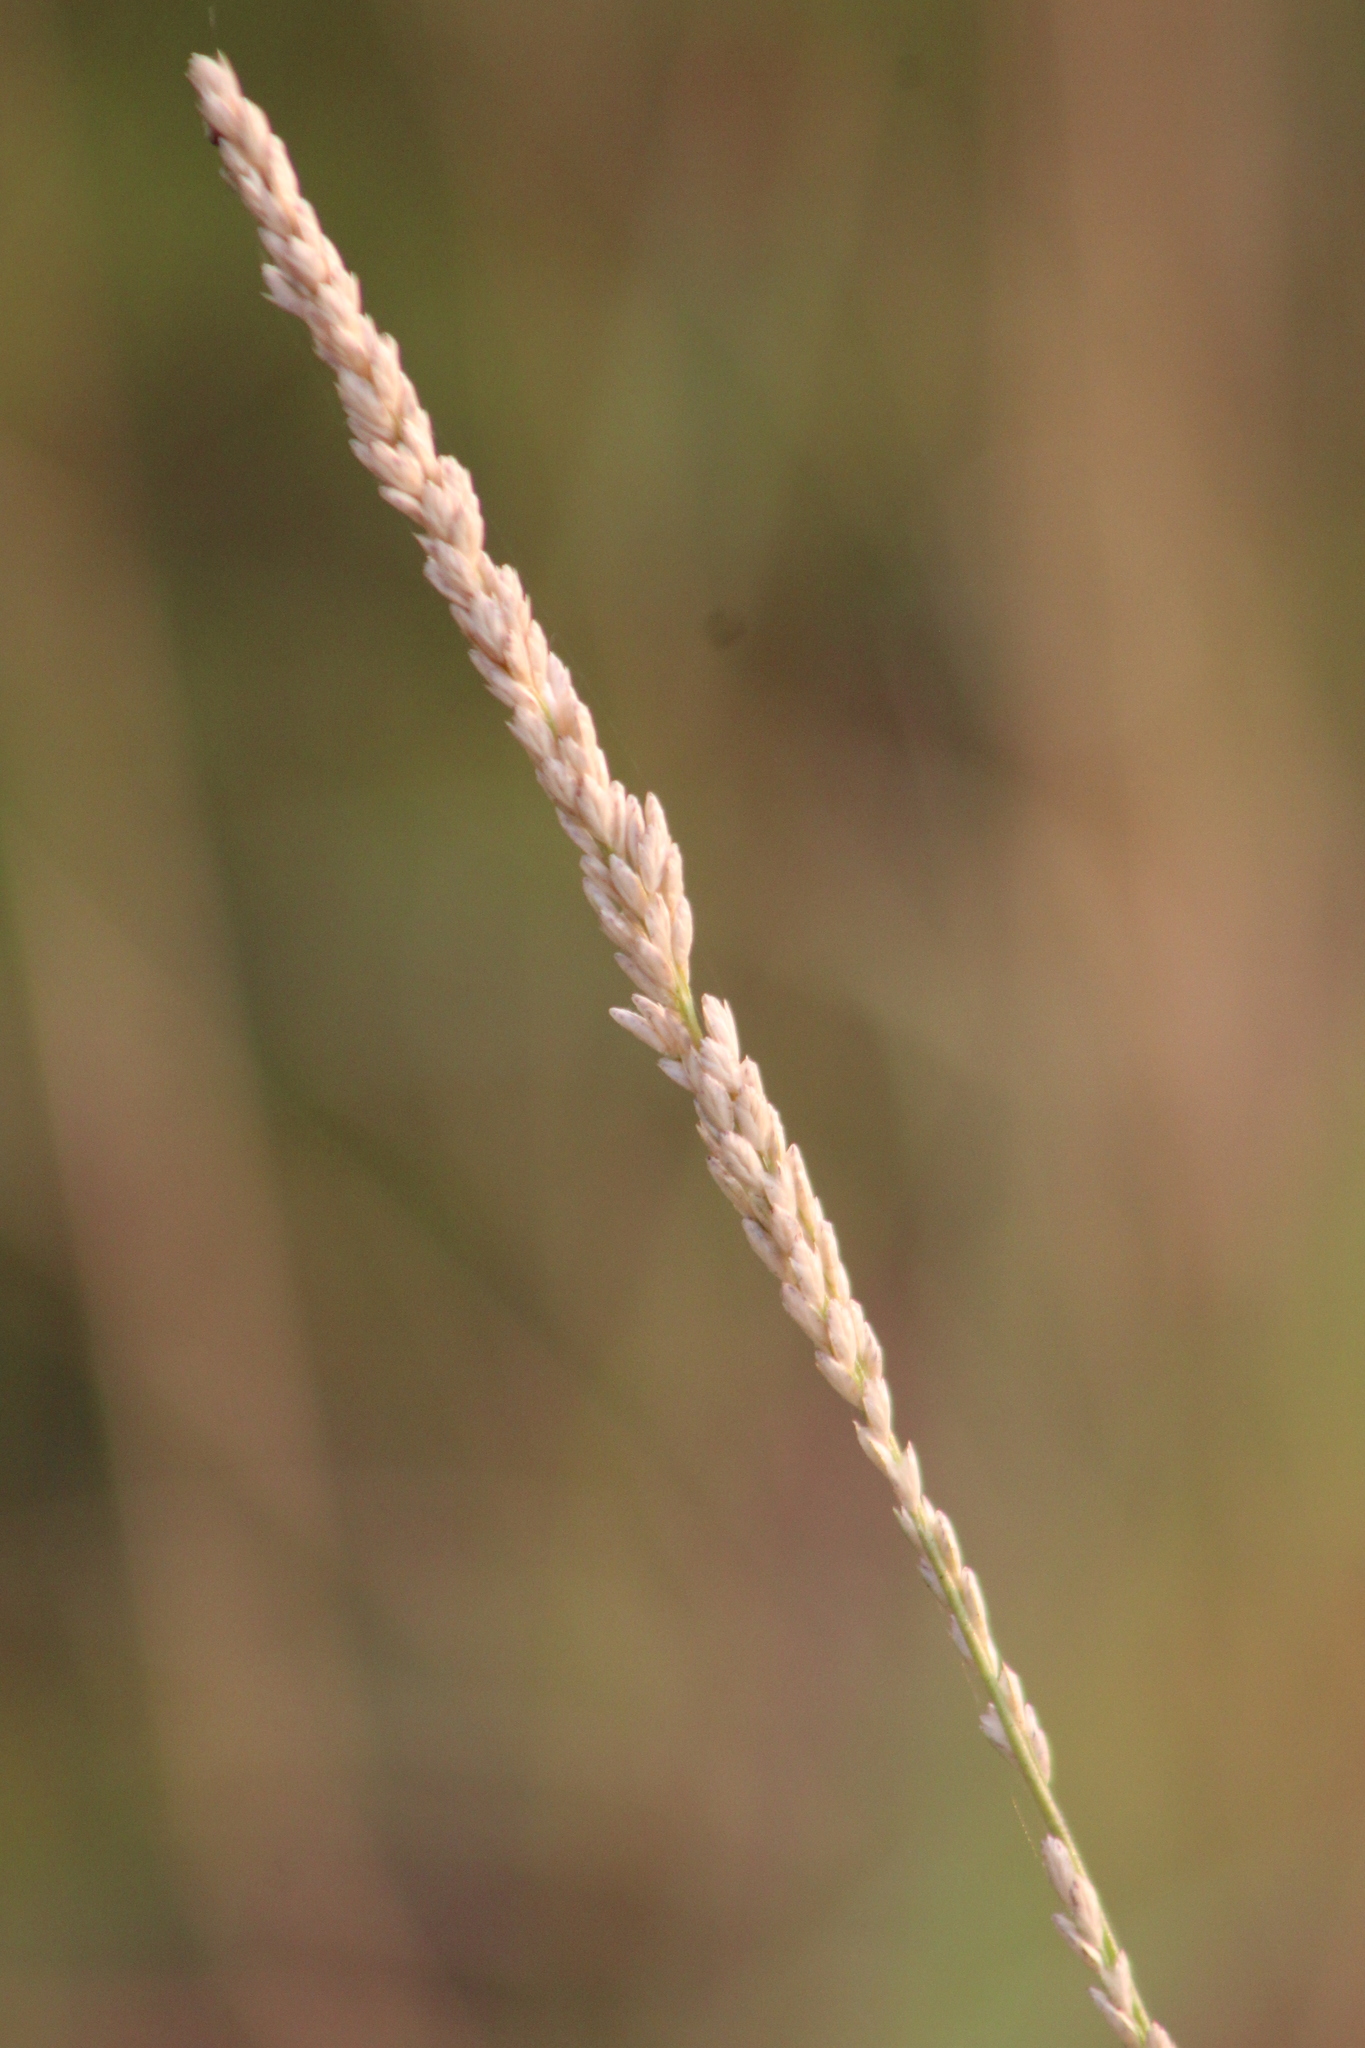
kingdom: Plantae
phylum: Tracheophyta
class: Liliopsida
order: Poales
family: Poaceae
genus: Tridens
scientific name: Tridens albescens
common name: White tridens
